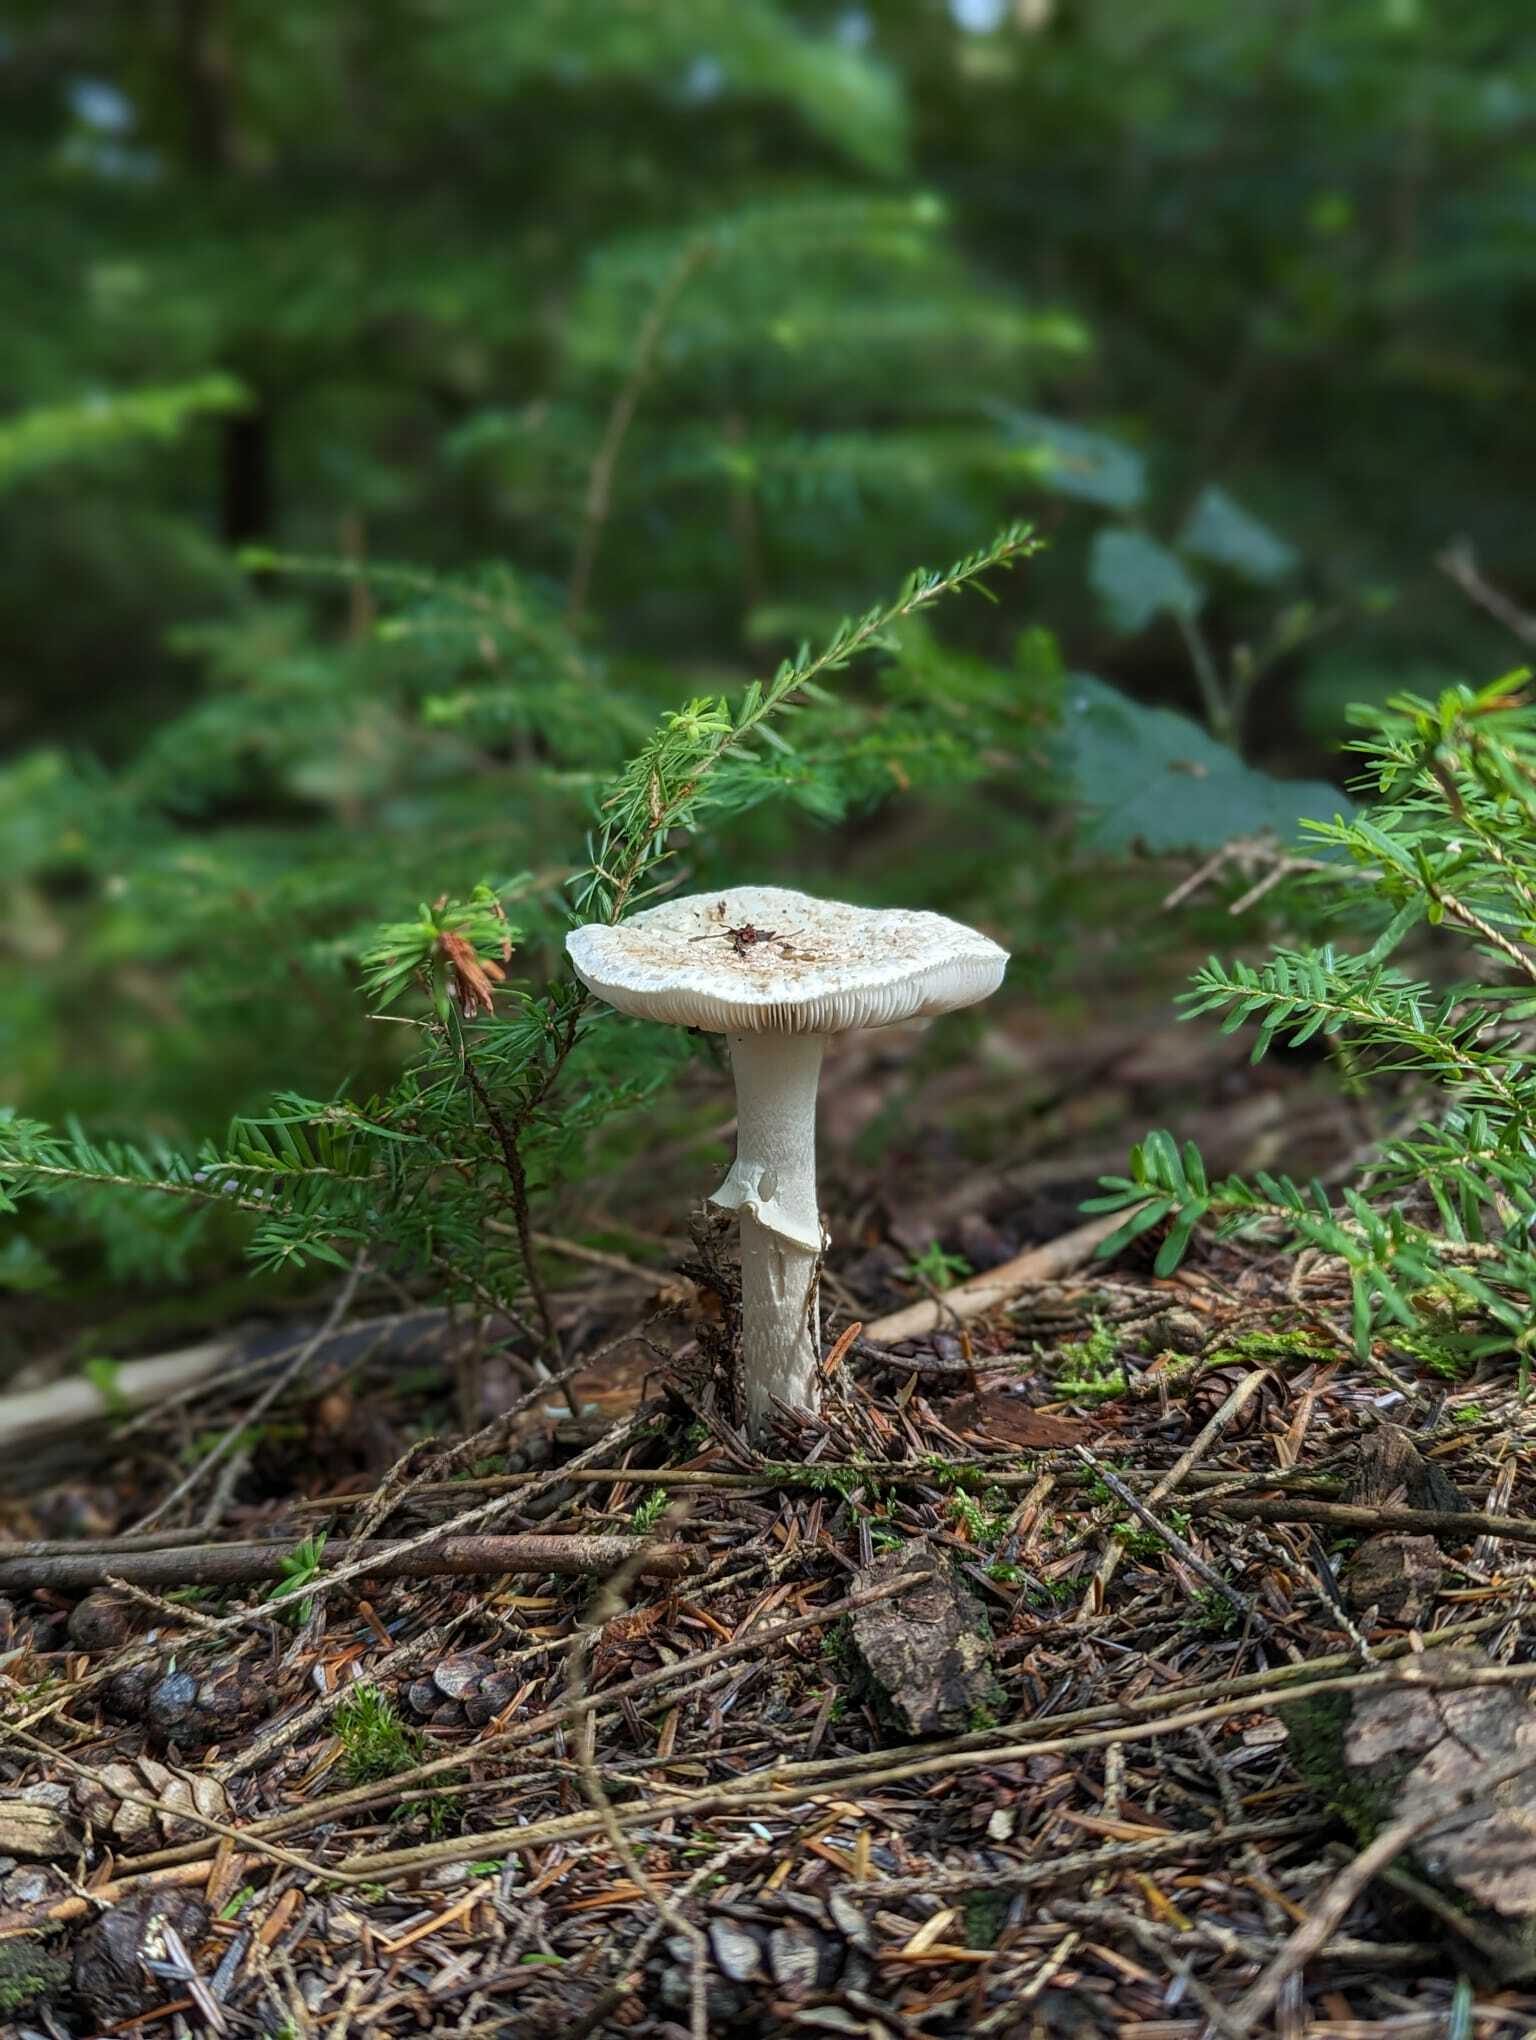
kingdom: Fungi
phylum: Basidiomycota
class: Agaricomycetes
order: Agaricales
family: Amanitaceae
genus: Amanita
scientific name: Amanita citrina
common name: False death-cap
